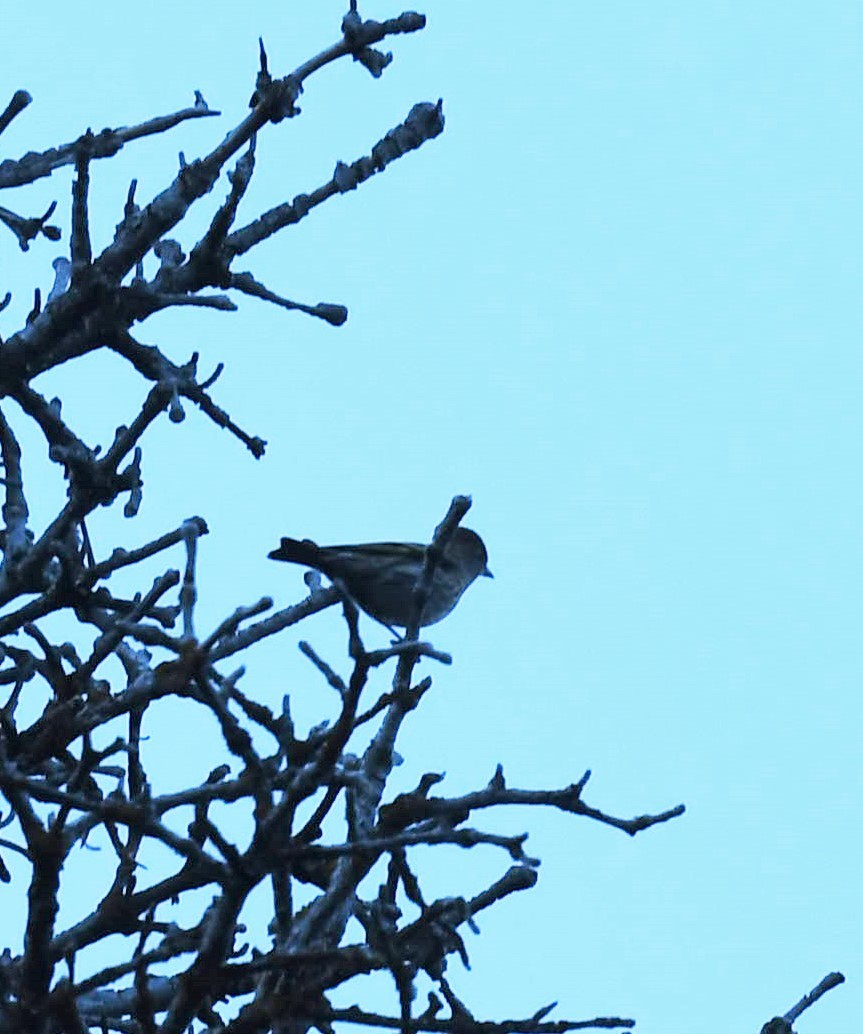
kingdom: Animalia
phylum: Chordata
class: Aves
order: Passeriformes
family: Fringillidae
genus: Spinus
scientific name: Spinus pinus
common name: Pine siskin
